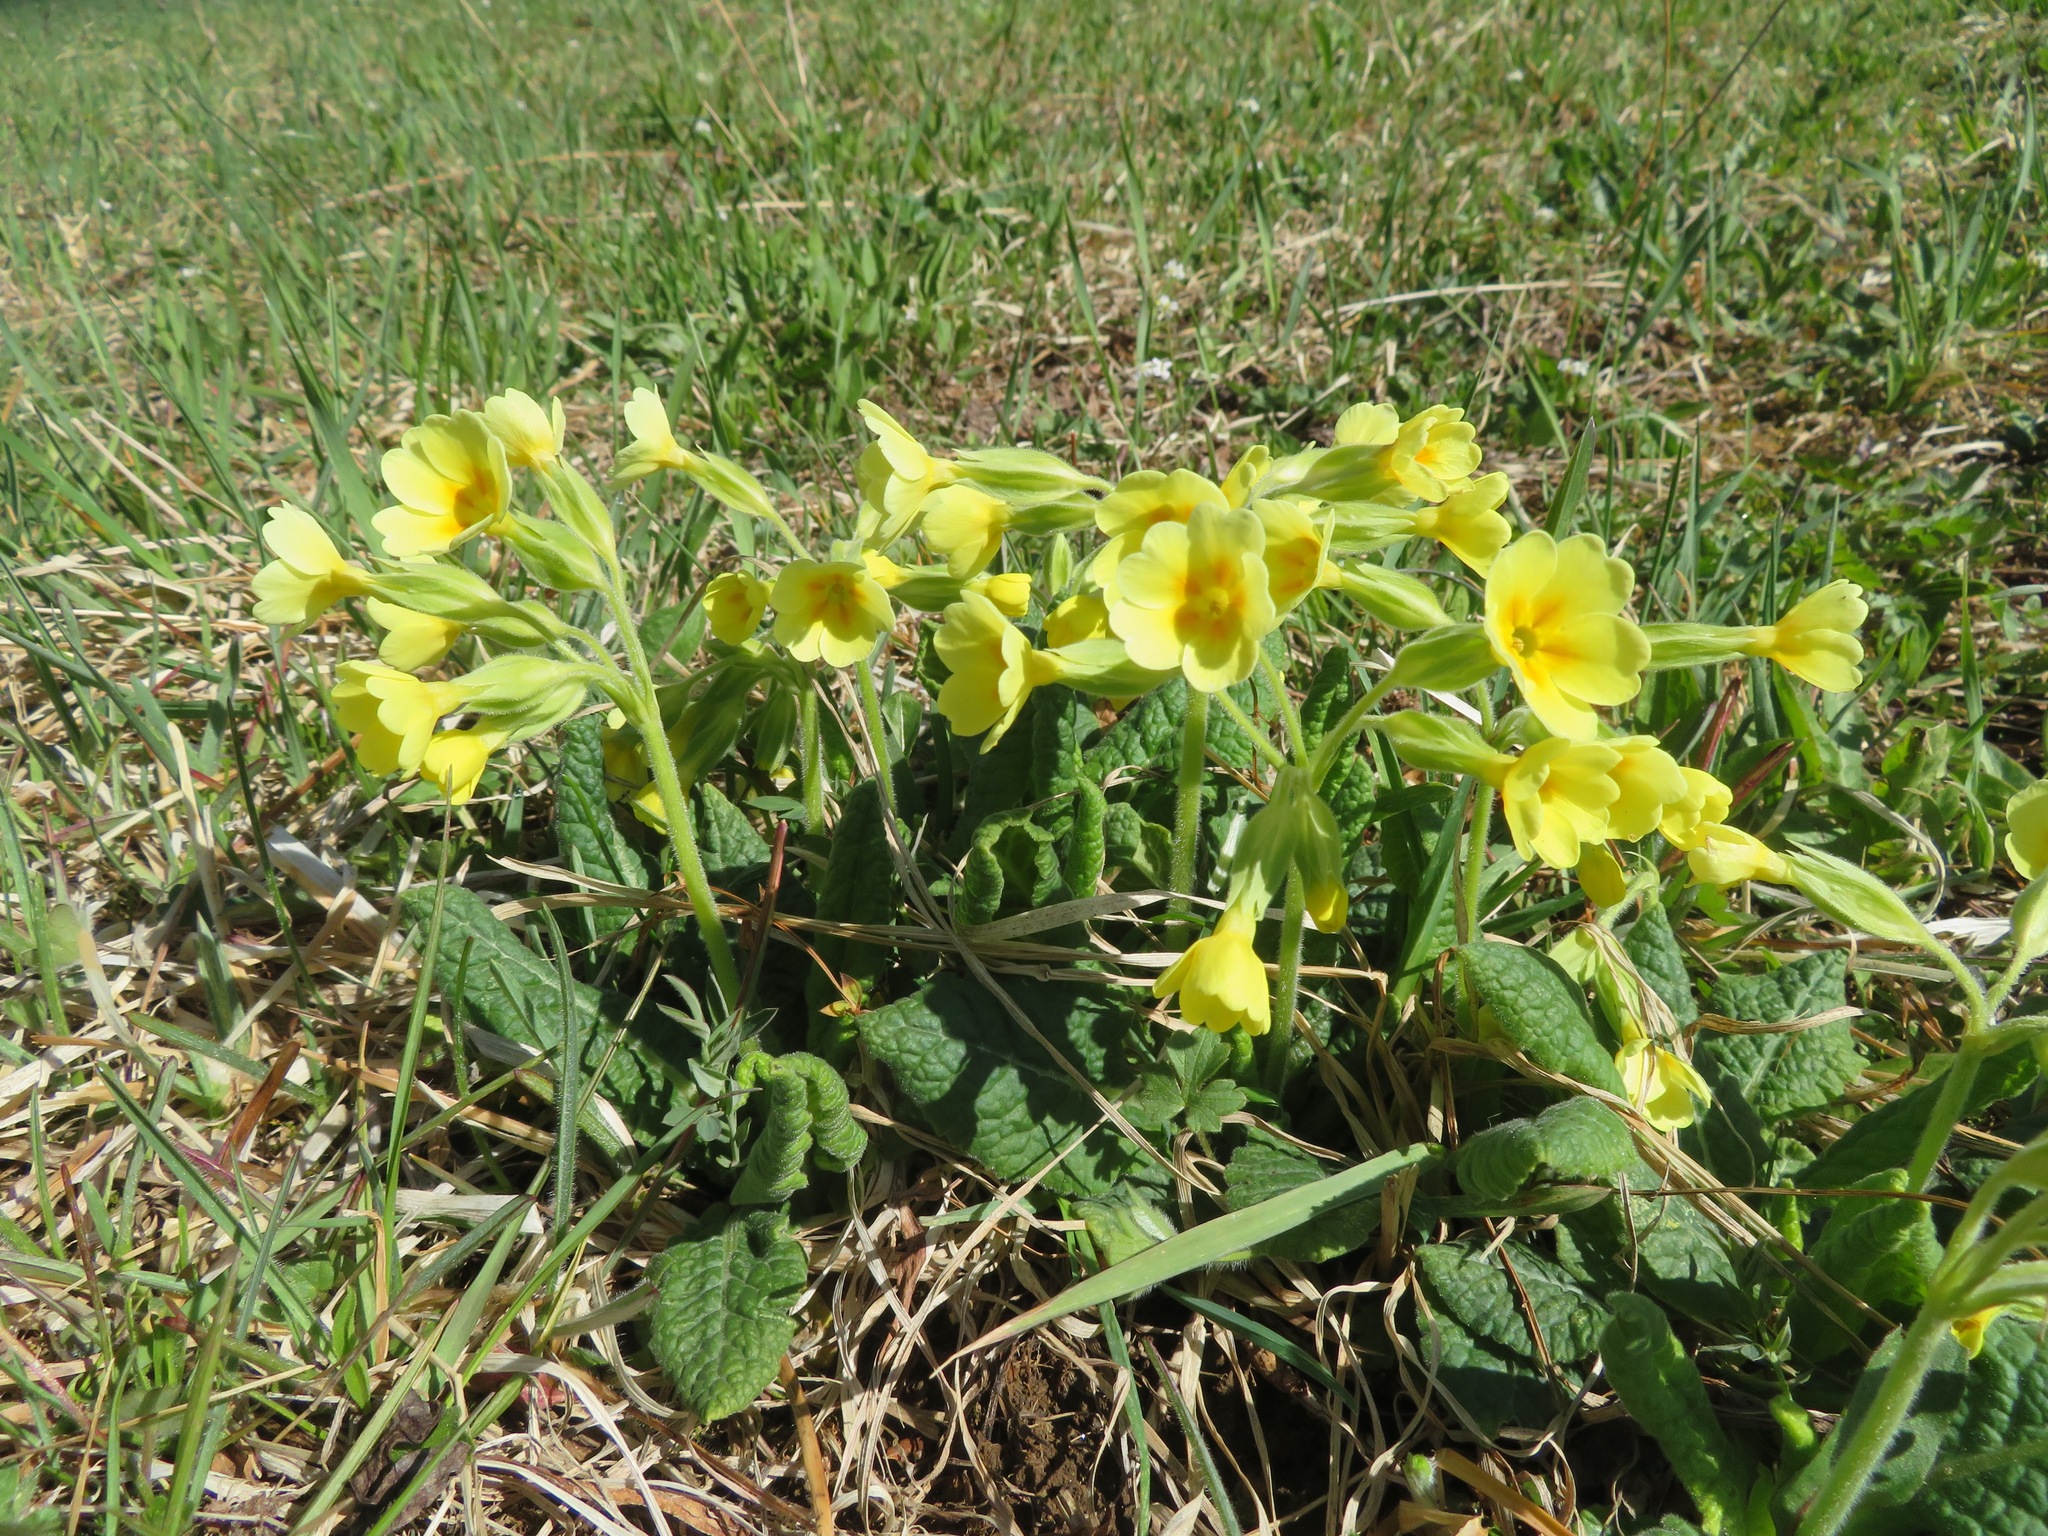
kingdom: Plantae
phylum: Tracheophyta
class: Magnoliopsida
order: Ericales
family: Primulaceae
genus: Primula
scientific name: Primula elatior
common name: Oxlip
